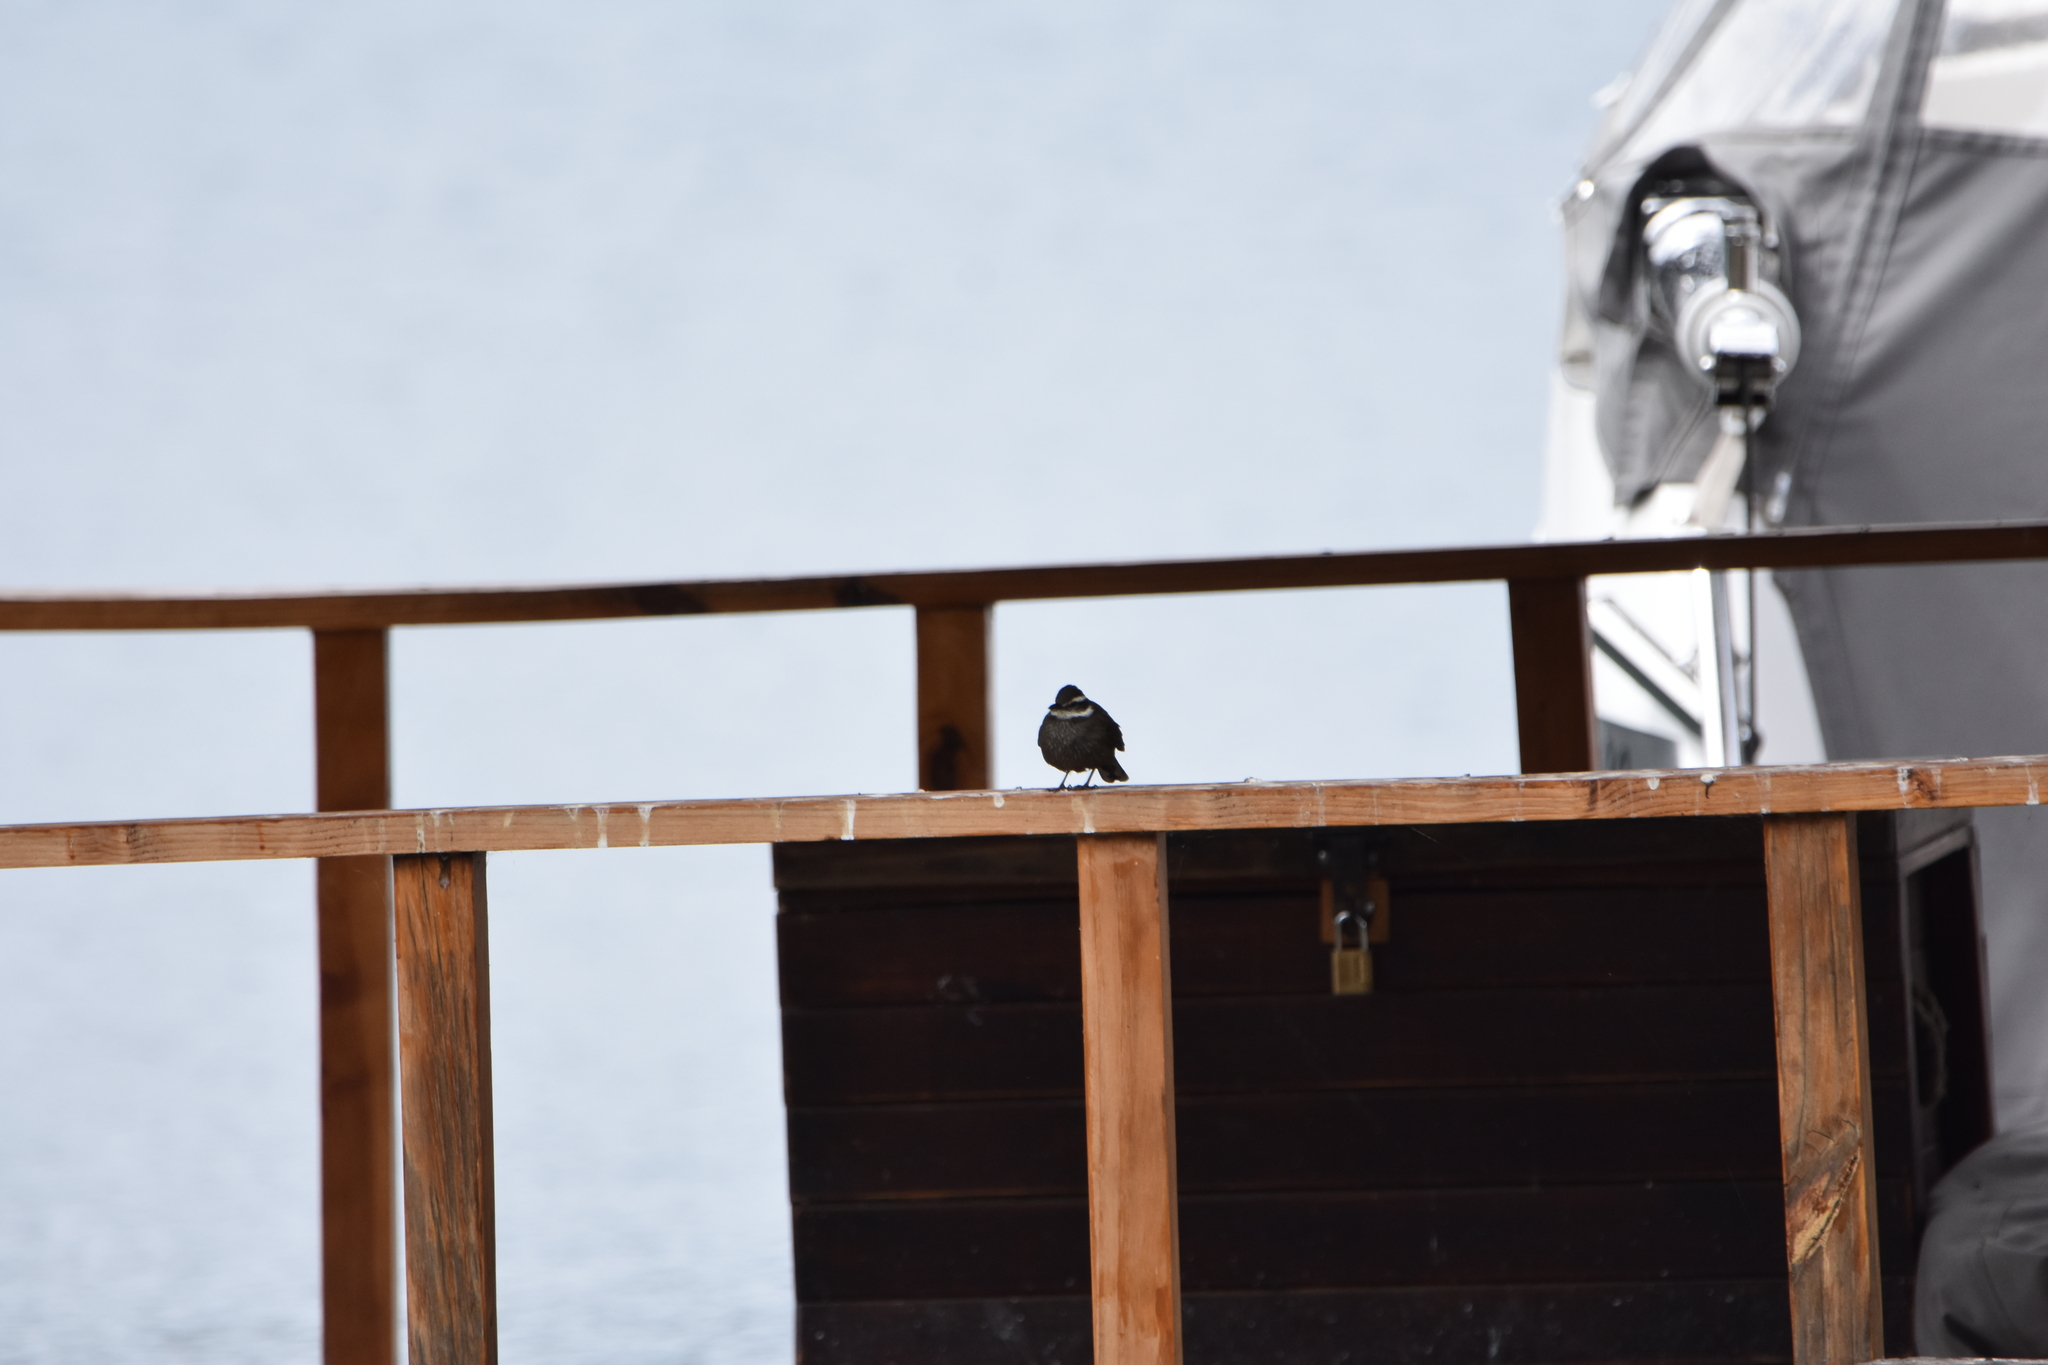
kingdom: Animalia
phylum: Chordata
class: Aves
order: Passeriformes
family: Furnariidae
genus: Cinclodes
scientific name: Cinclodes patagonicus
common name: Dark-bellied cinclodes
